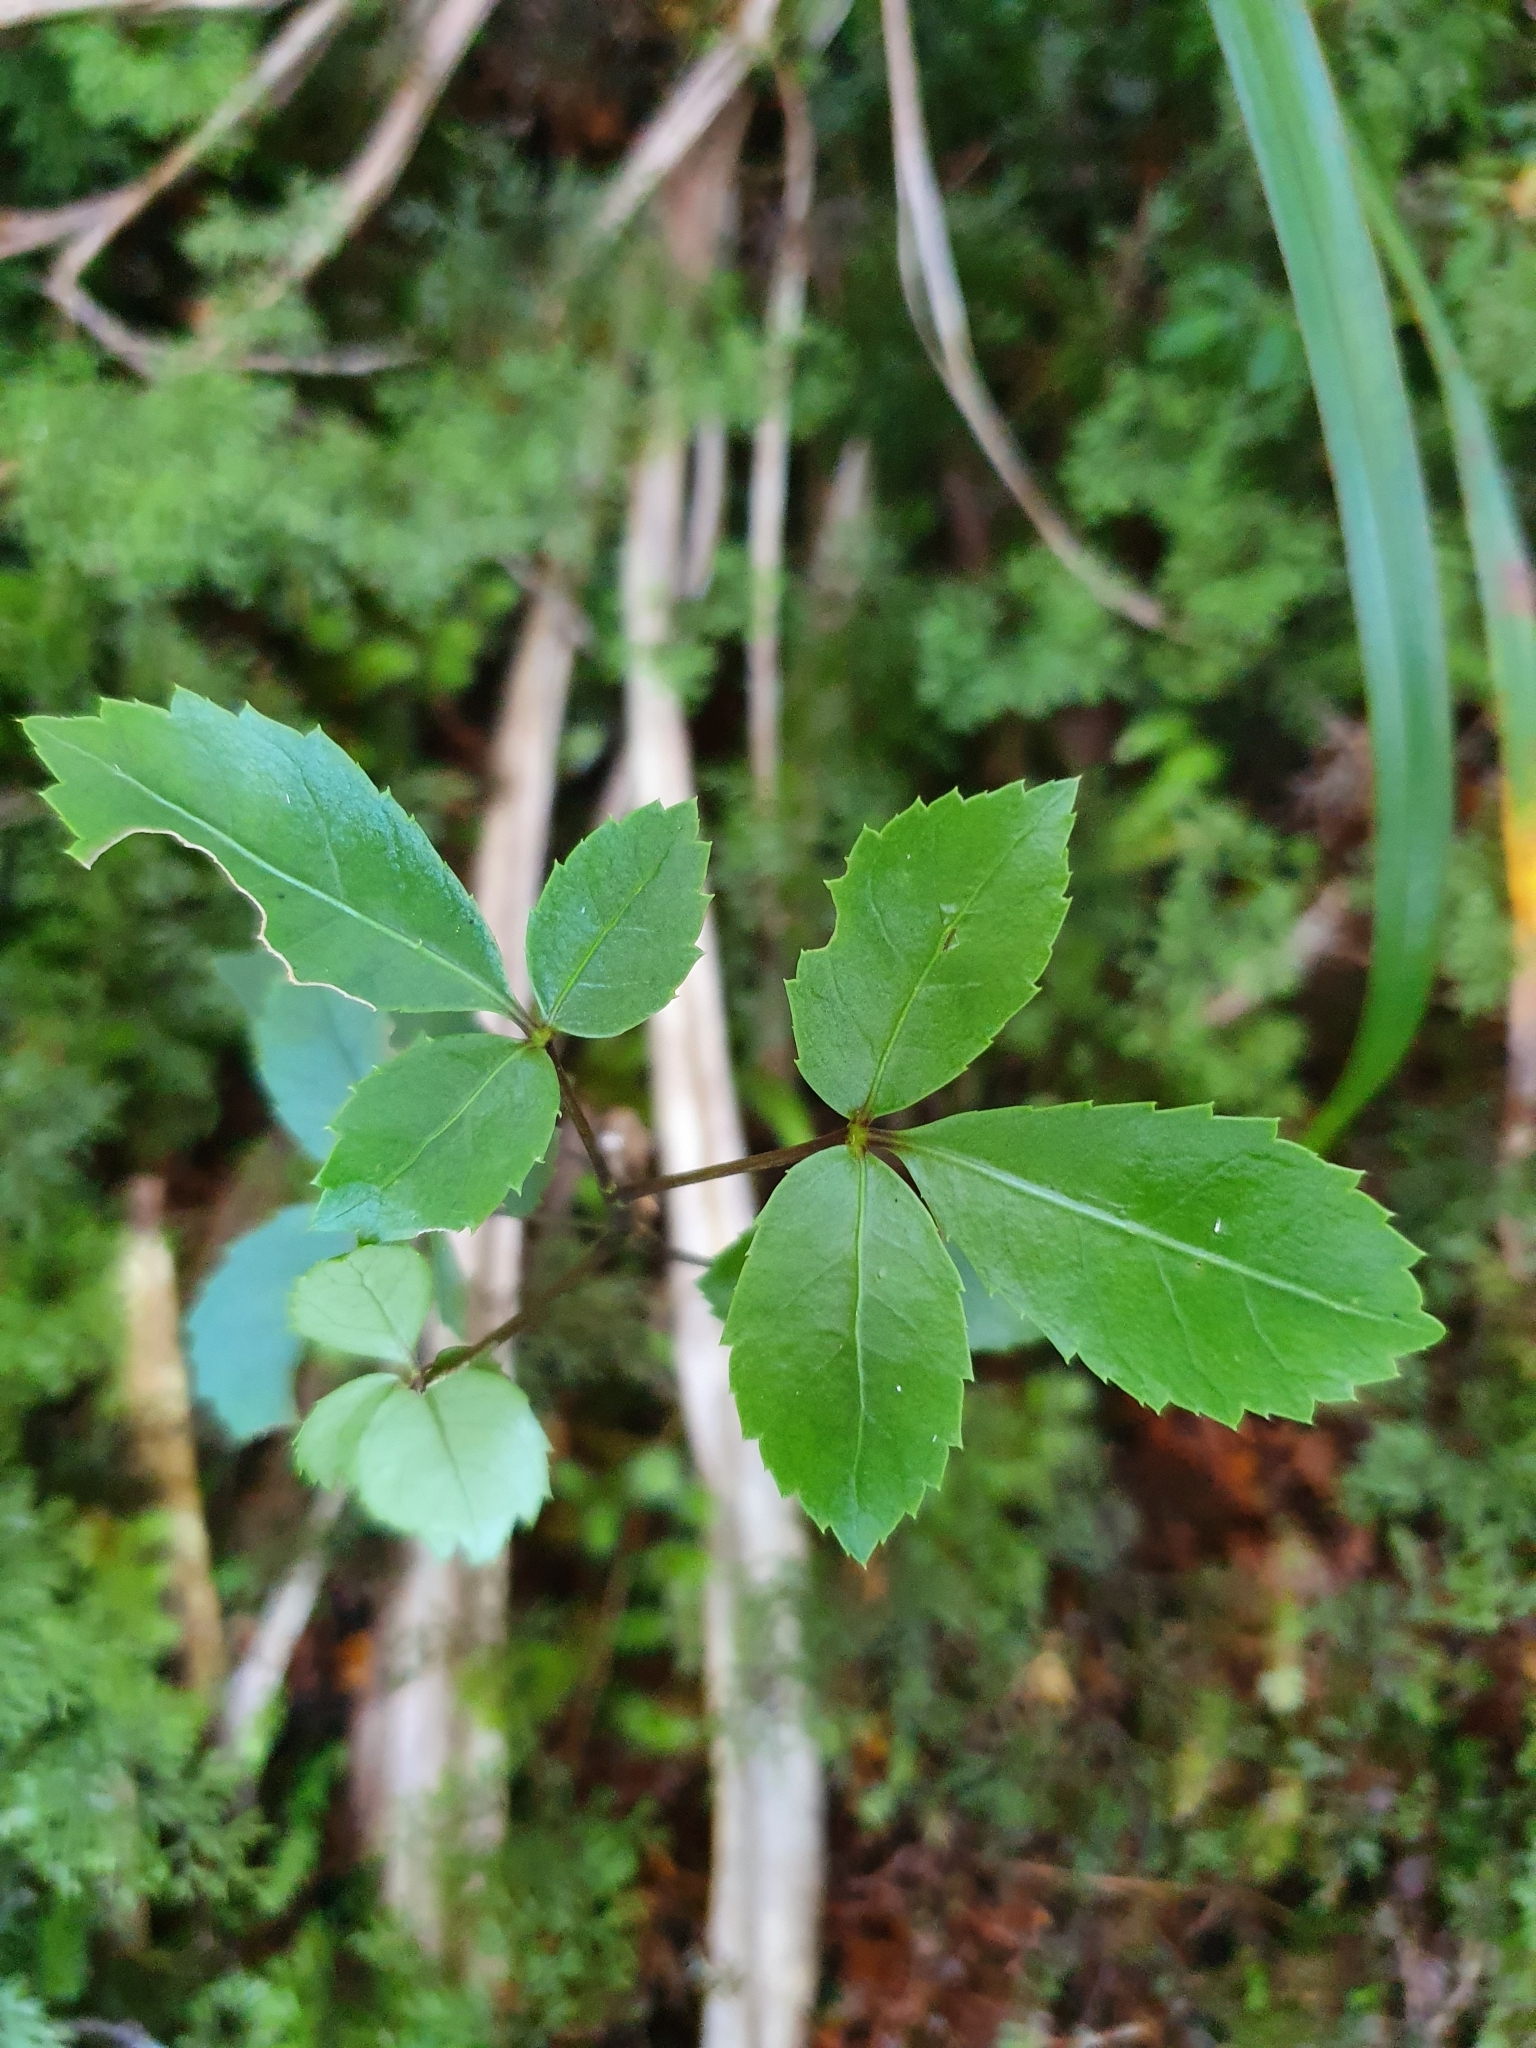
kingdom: Plantae
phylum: Tracheophyta
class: Magnoliopsida
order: Apiales
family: Araliaceae
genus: Neopanax
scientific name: Neopanax colensoi
